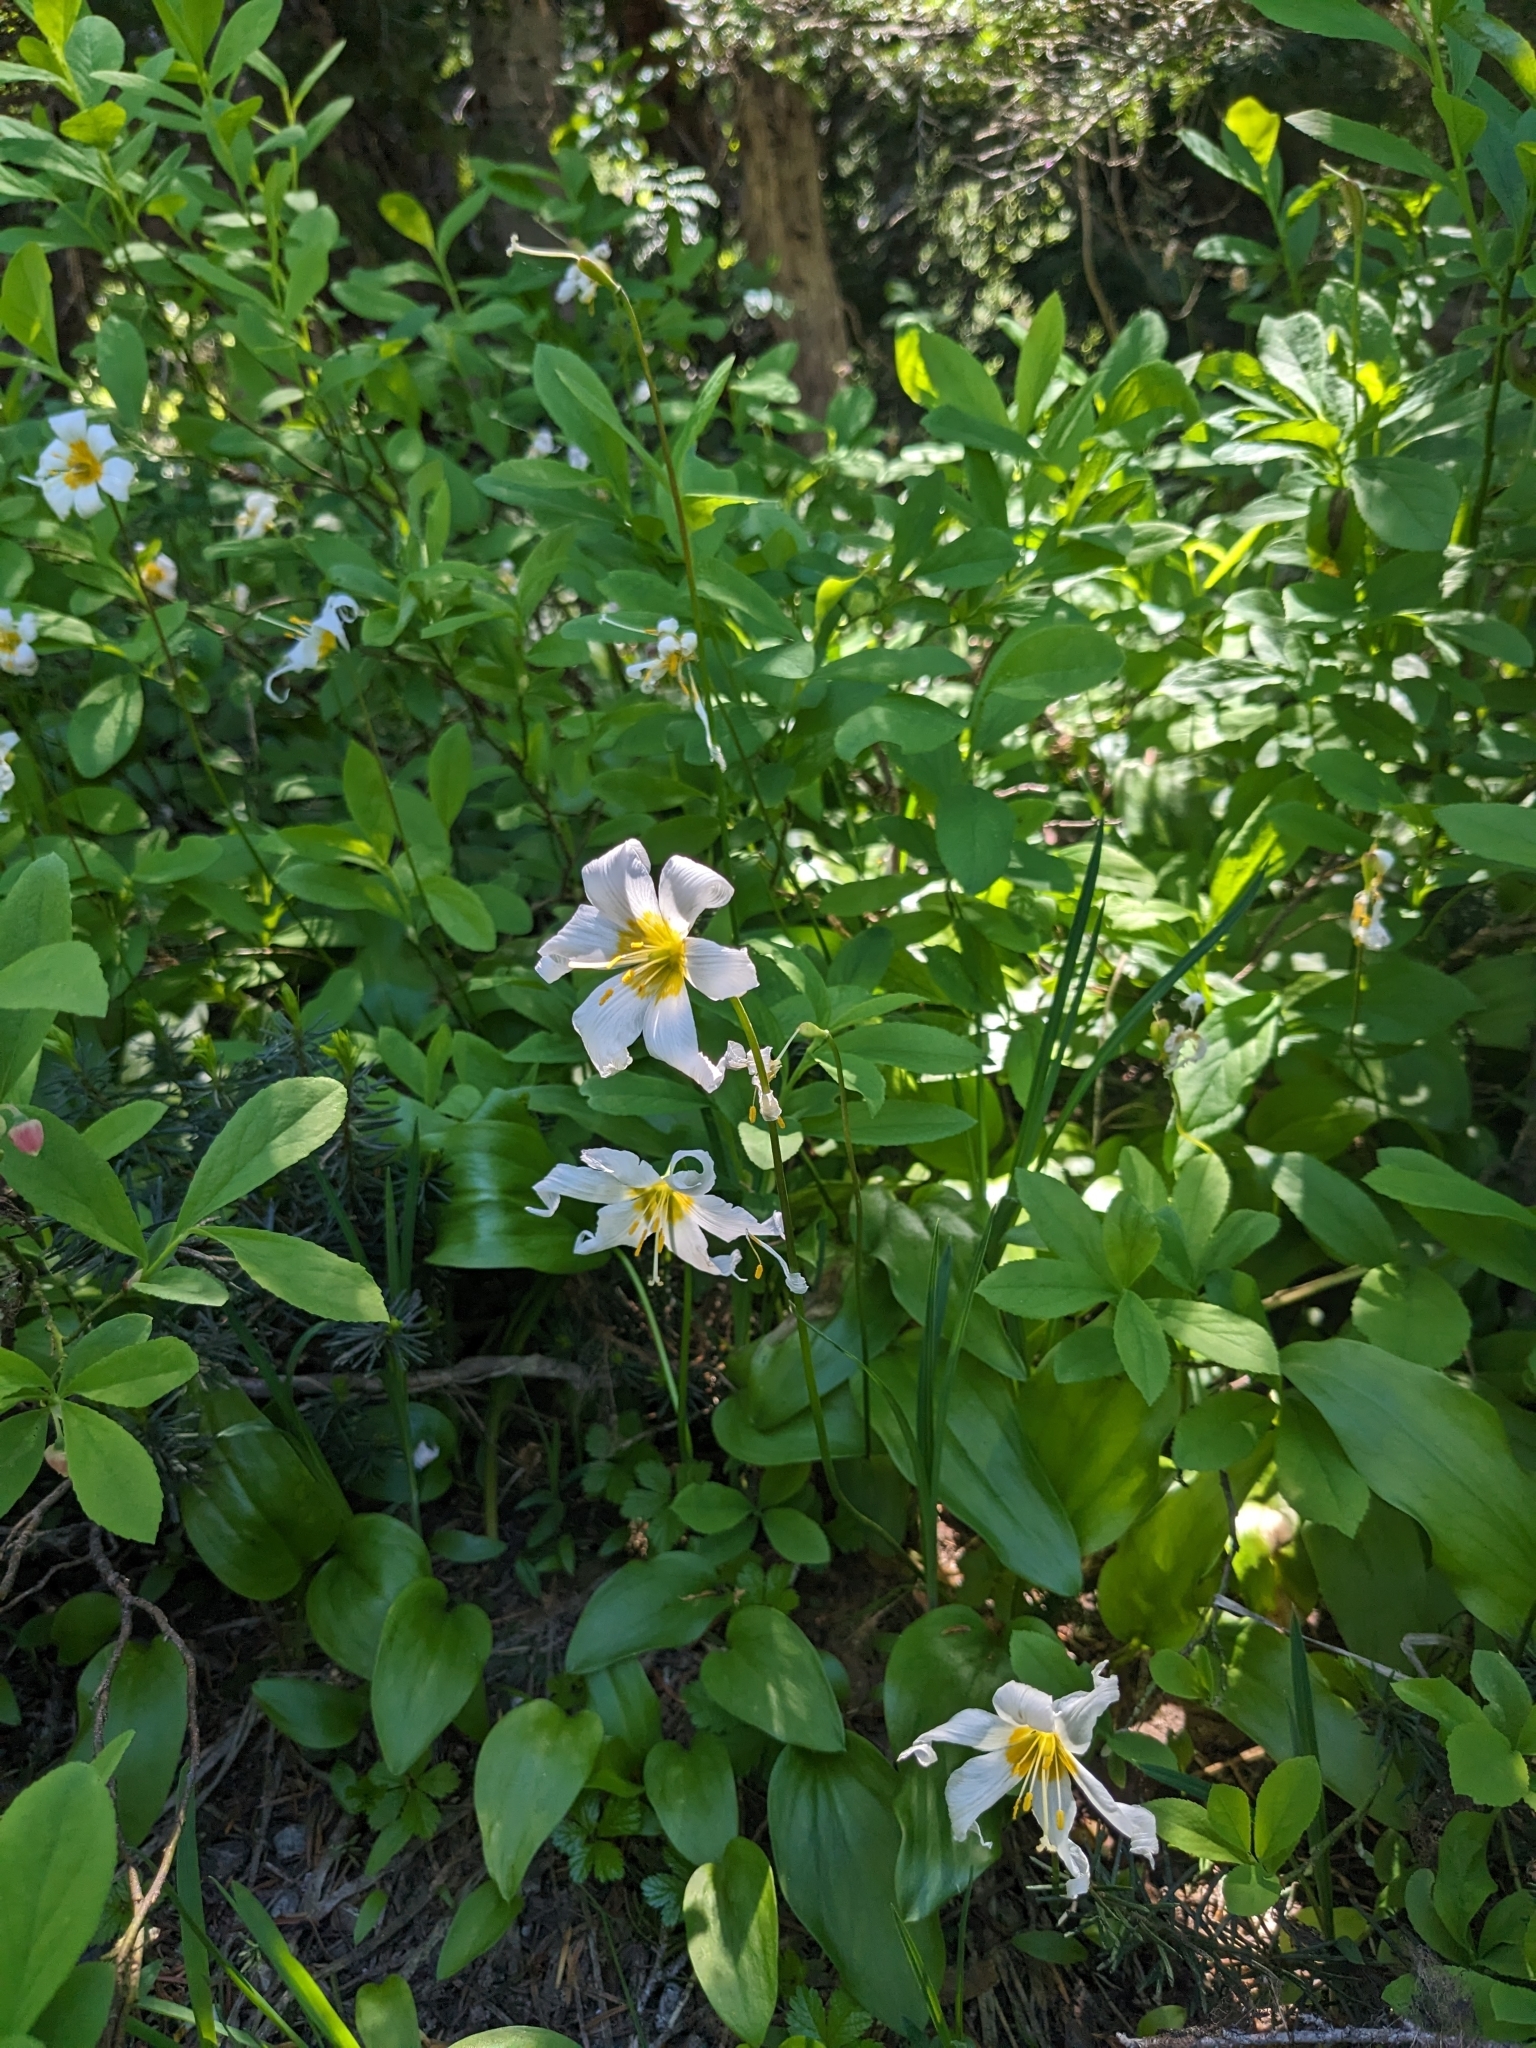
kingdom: Plantae
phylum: Tracheophyta
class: Liliopsida
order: Liliales
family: Liliaceae
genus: Erythronium
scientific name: Erythronium montanum
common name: Avalanche lily
